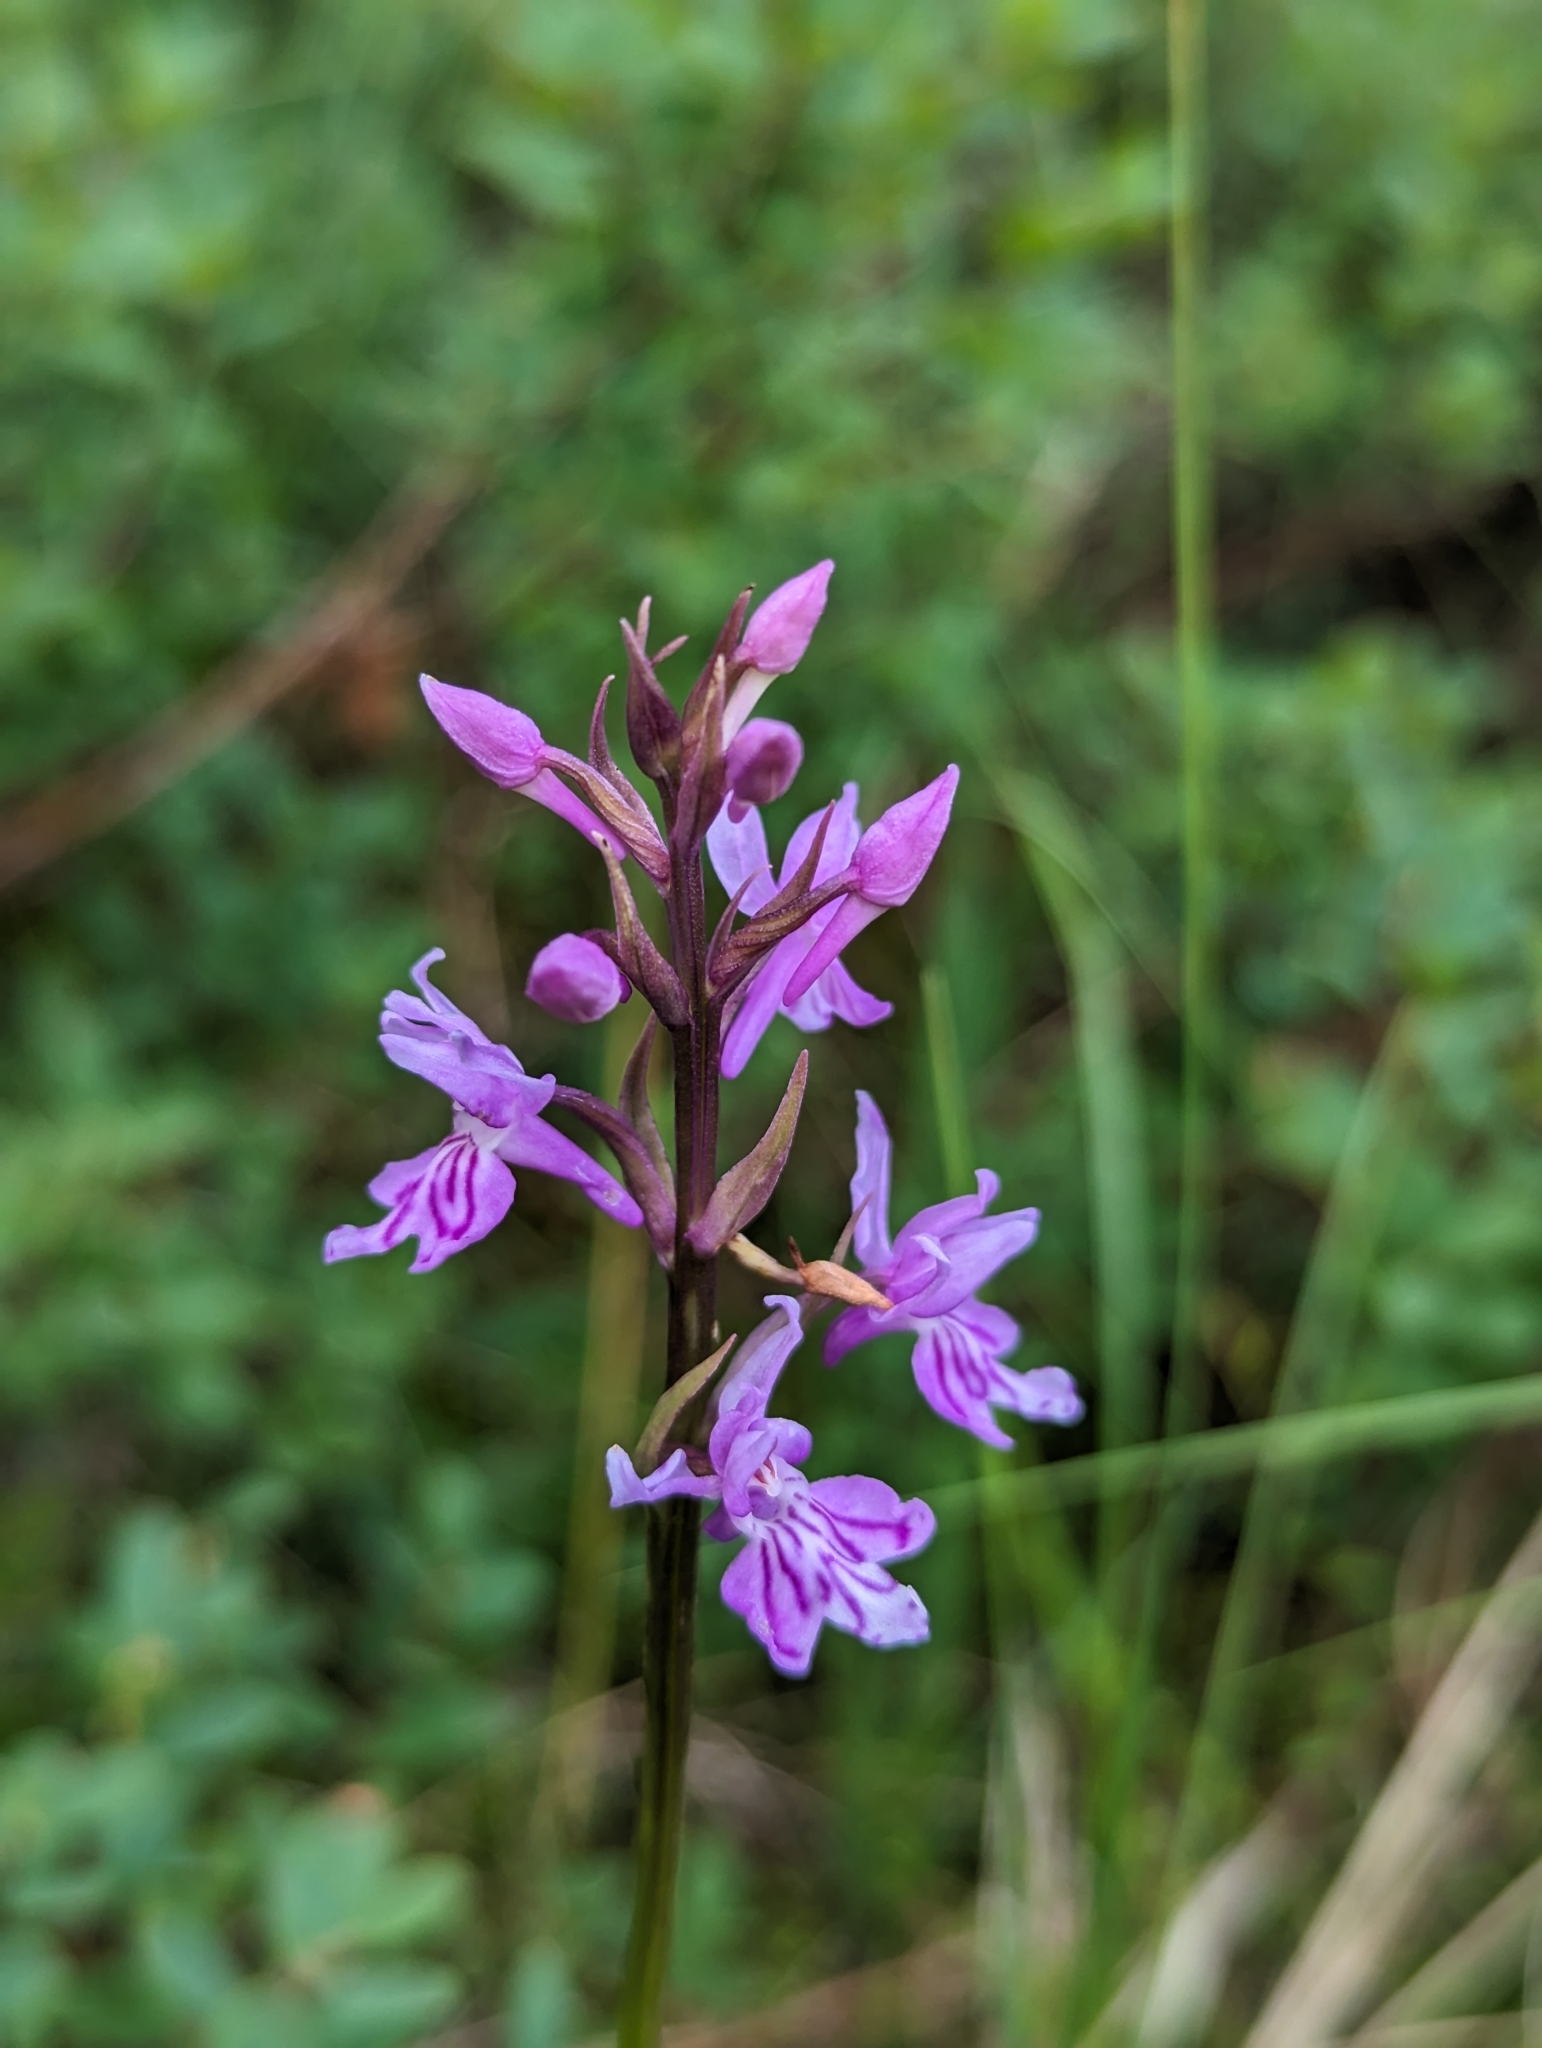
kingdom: Plantae
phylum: Tracheophyta
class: Liliopsida
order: Asparagales
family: Orchidaceae
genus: Dactylorhiza
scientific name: Dactylorhiza majalis
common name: Marsh orchid
